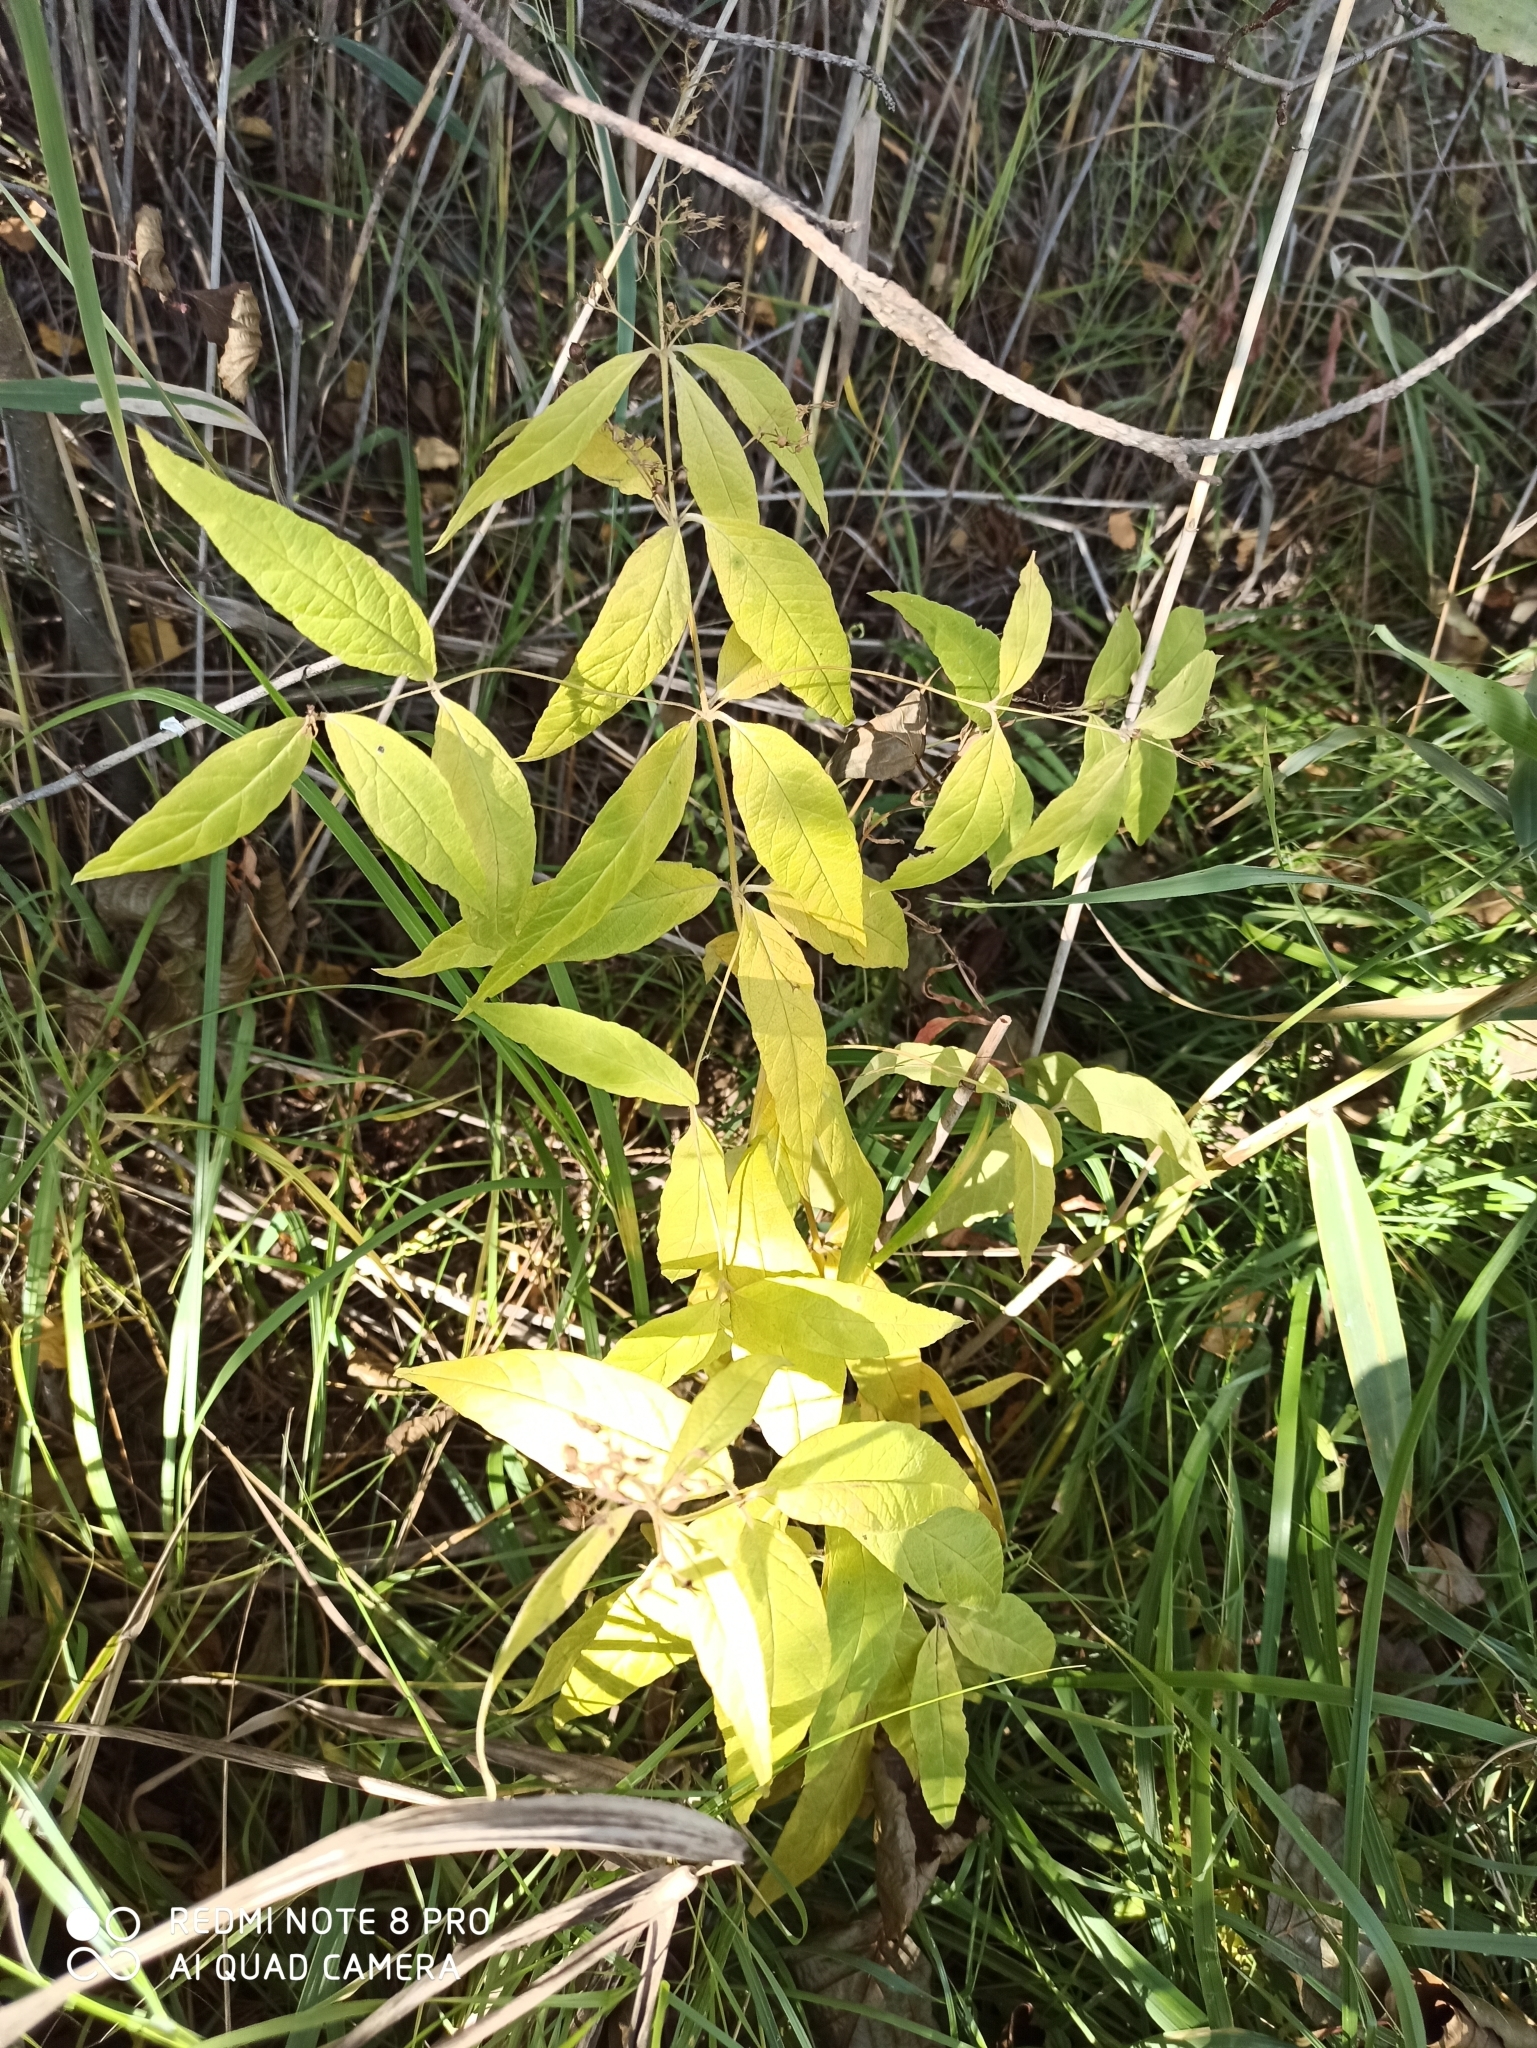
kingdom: Plantae
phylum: Tracheophyta
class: Magnoliopsida
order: Ericales
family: Primulaceae
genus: Lysimachia
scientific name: Lysimachia vulgaris
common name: Yellow loosestrife
